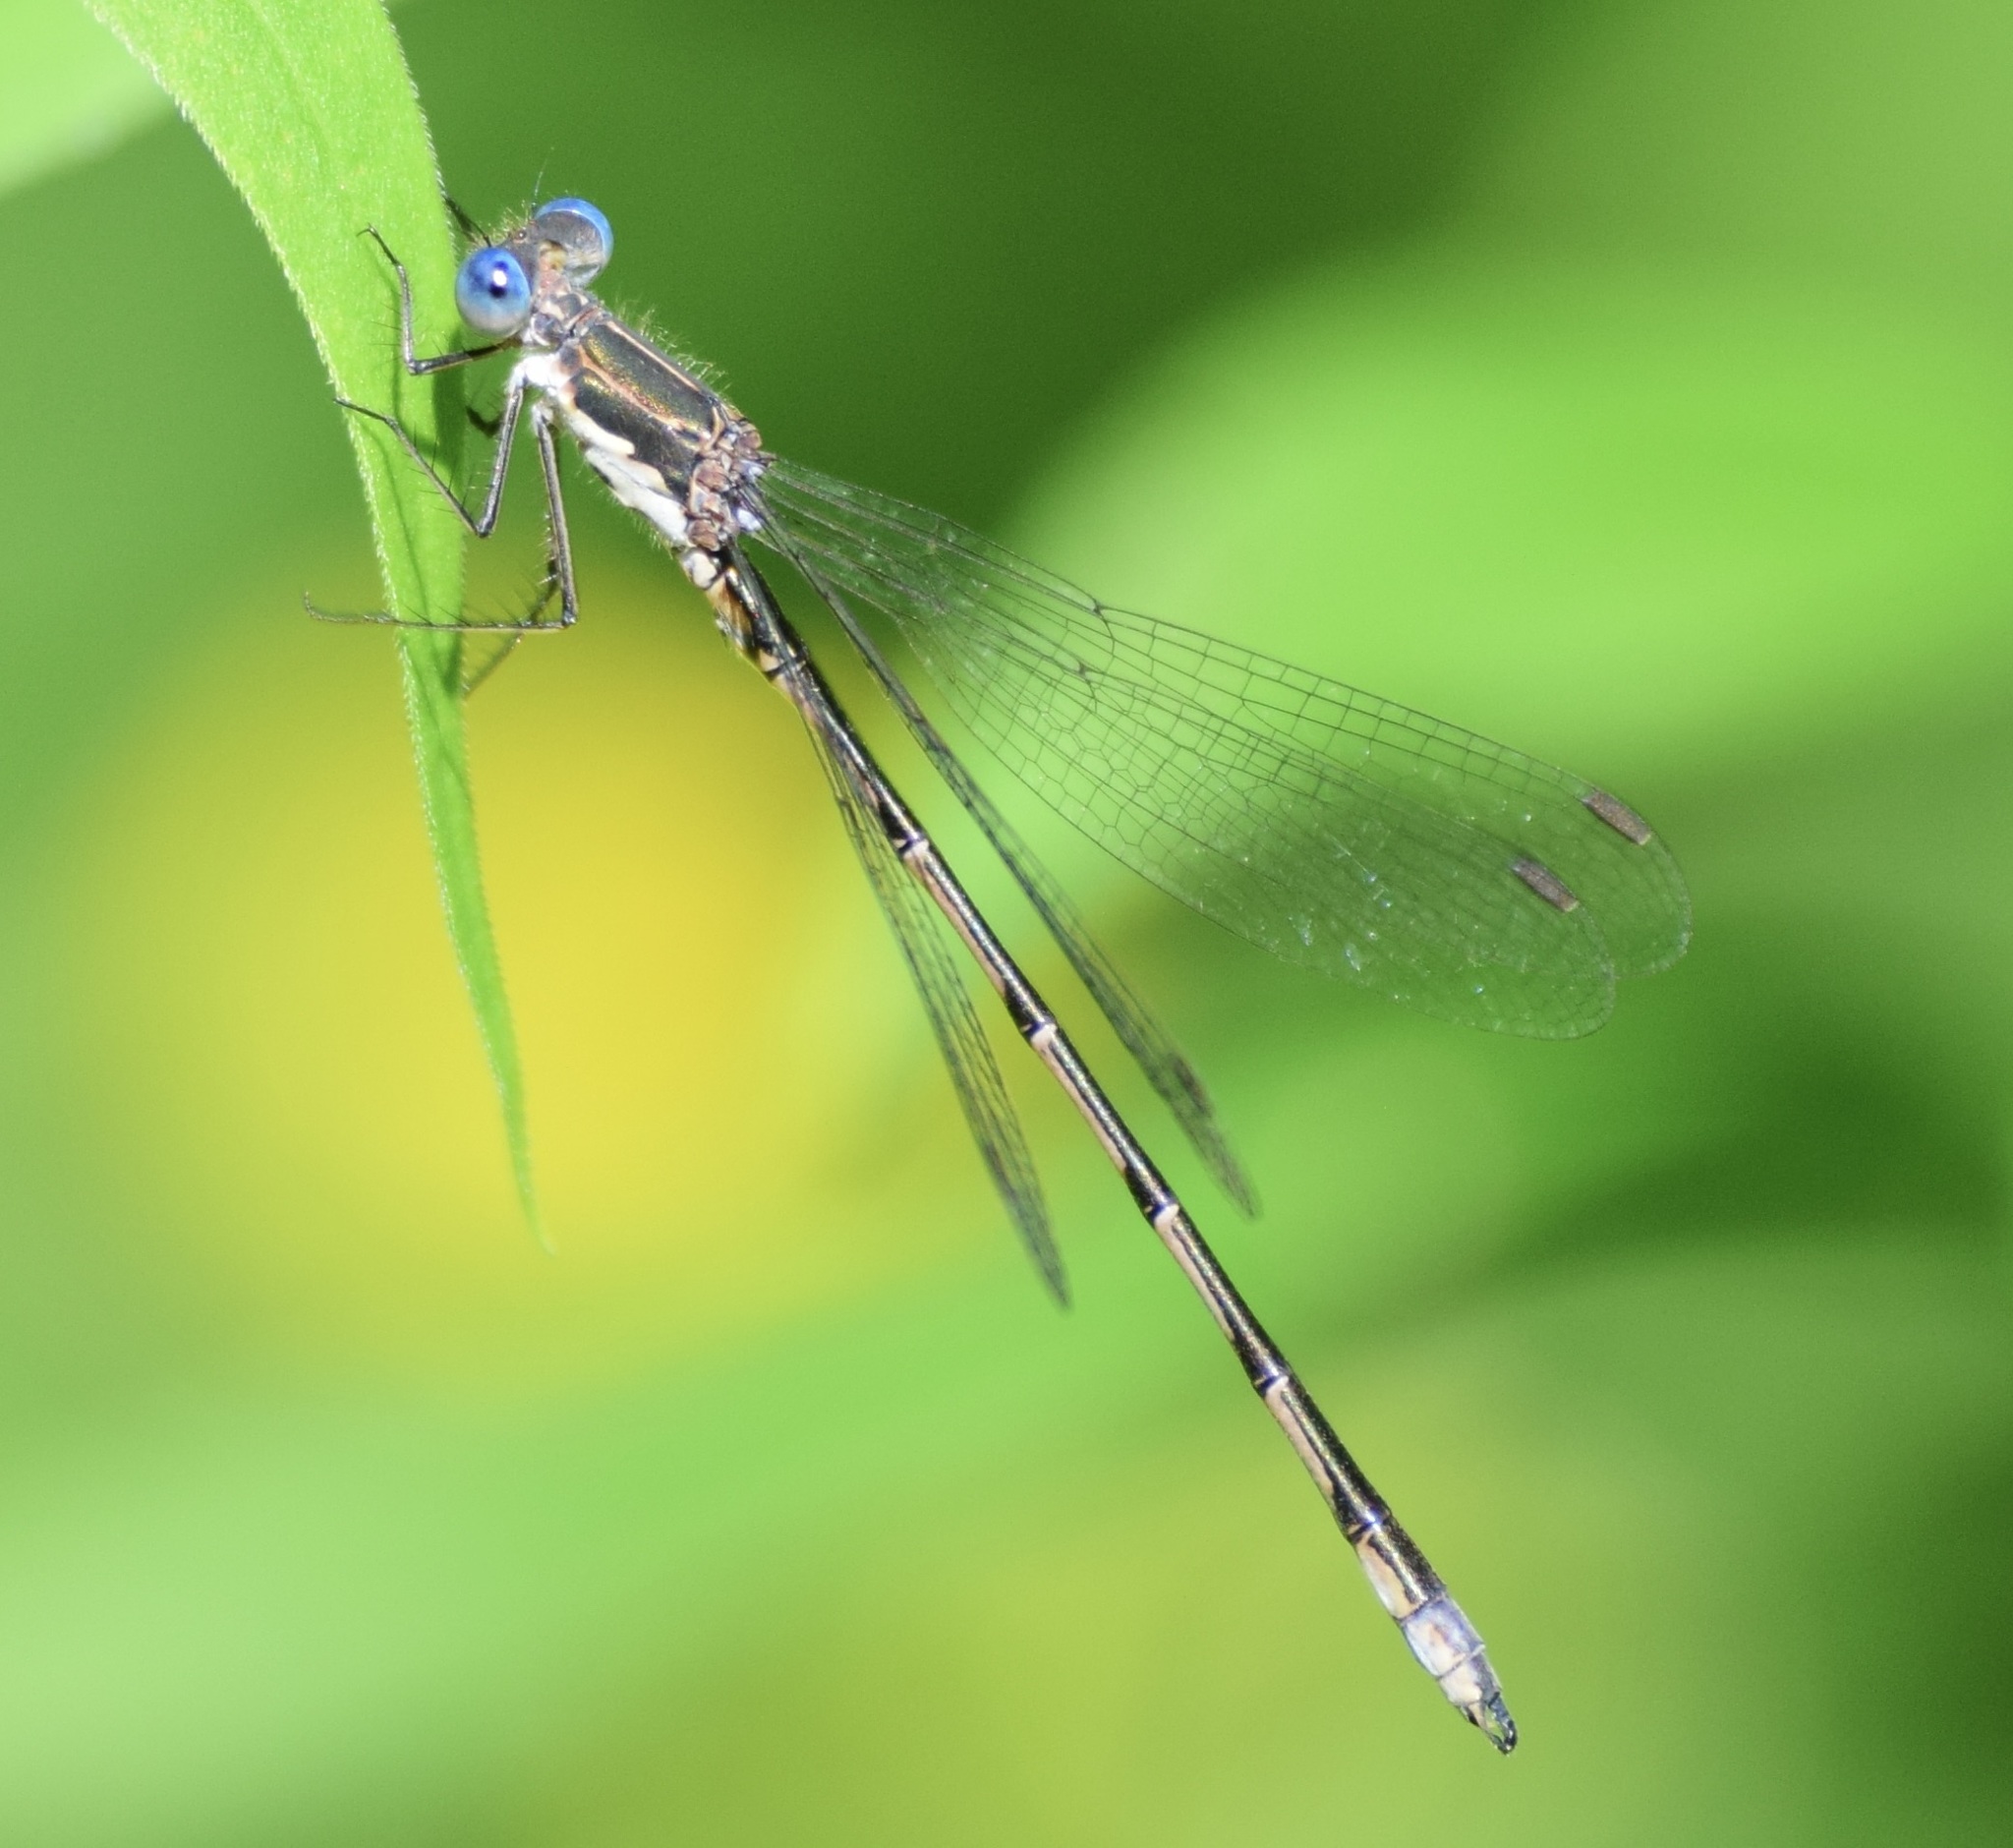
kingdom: Animalia
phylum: Arthropoda
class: Insecta
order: Odonata
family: Lestidae
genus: Lestes
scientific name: Lestes congener
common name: Spotted spreadwing
